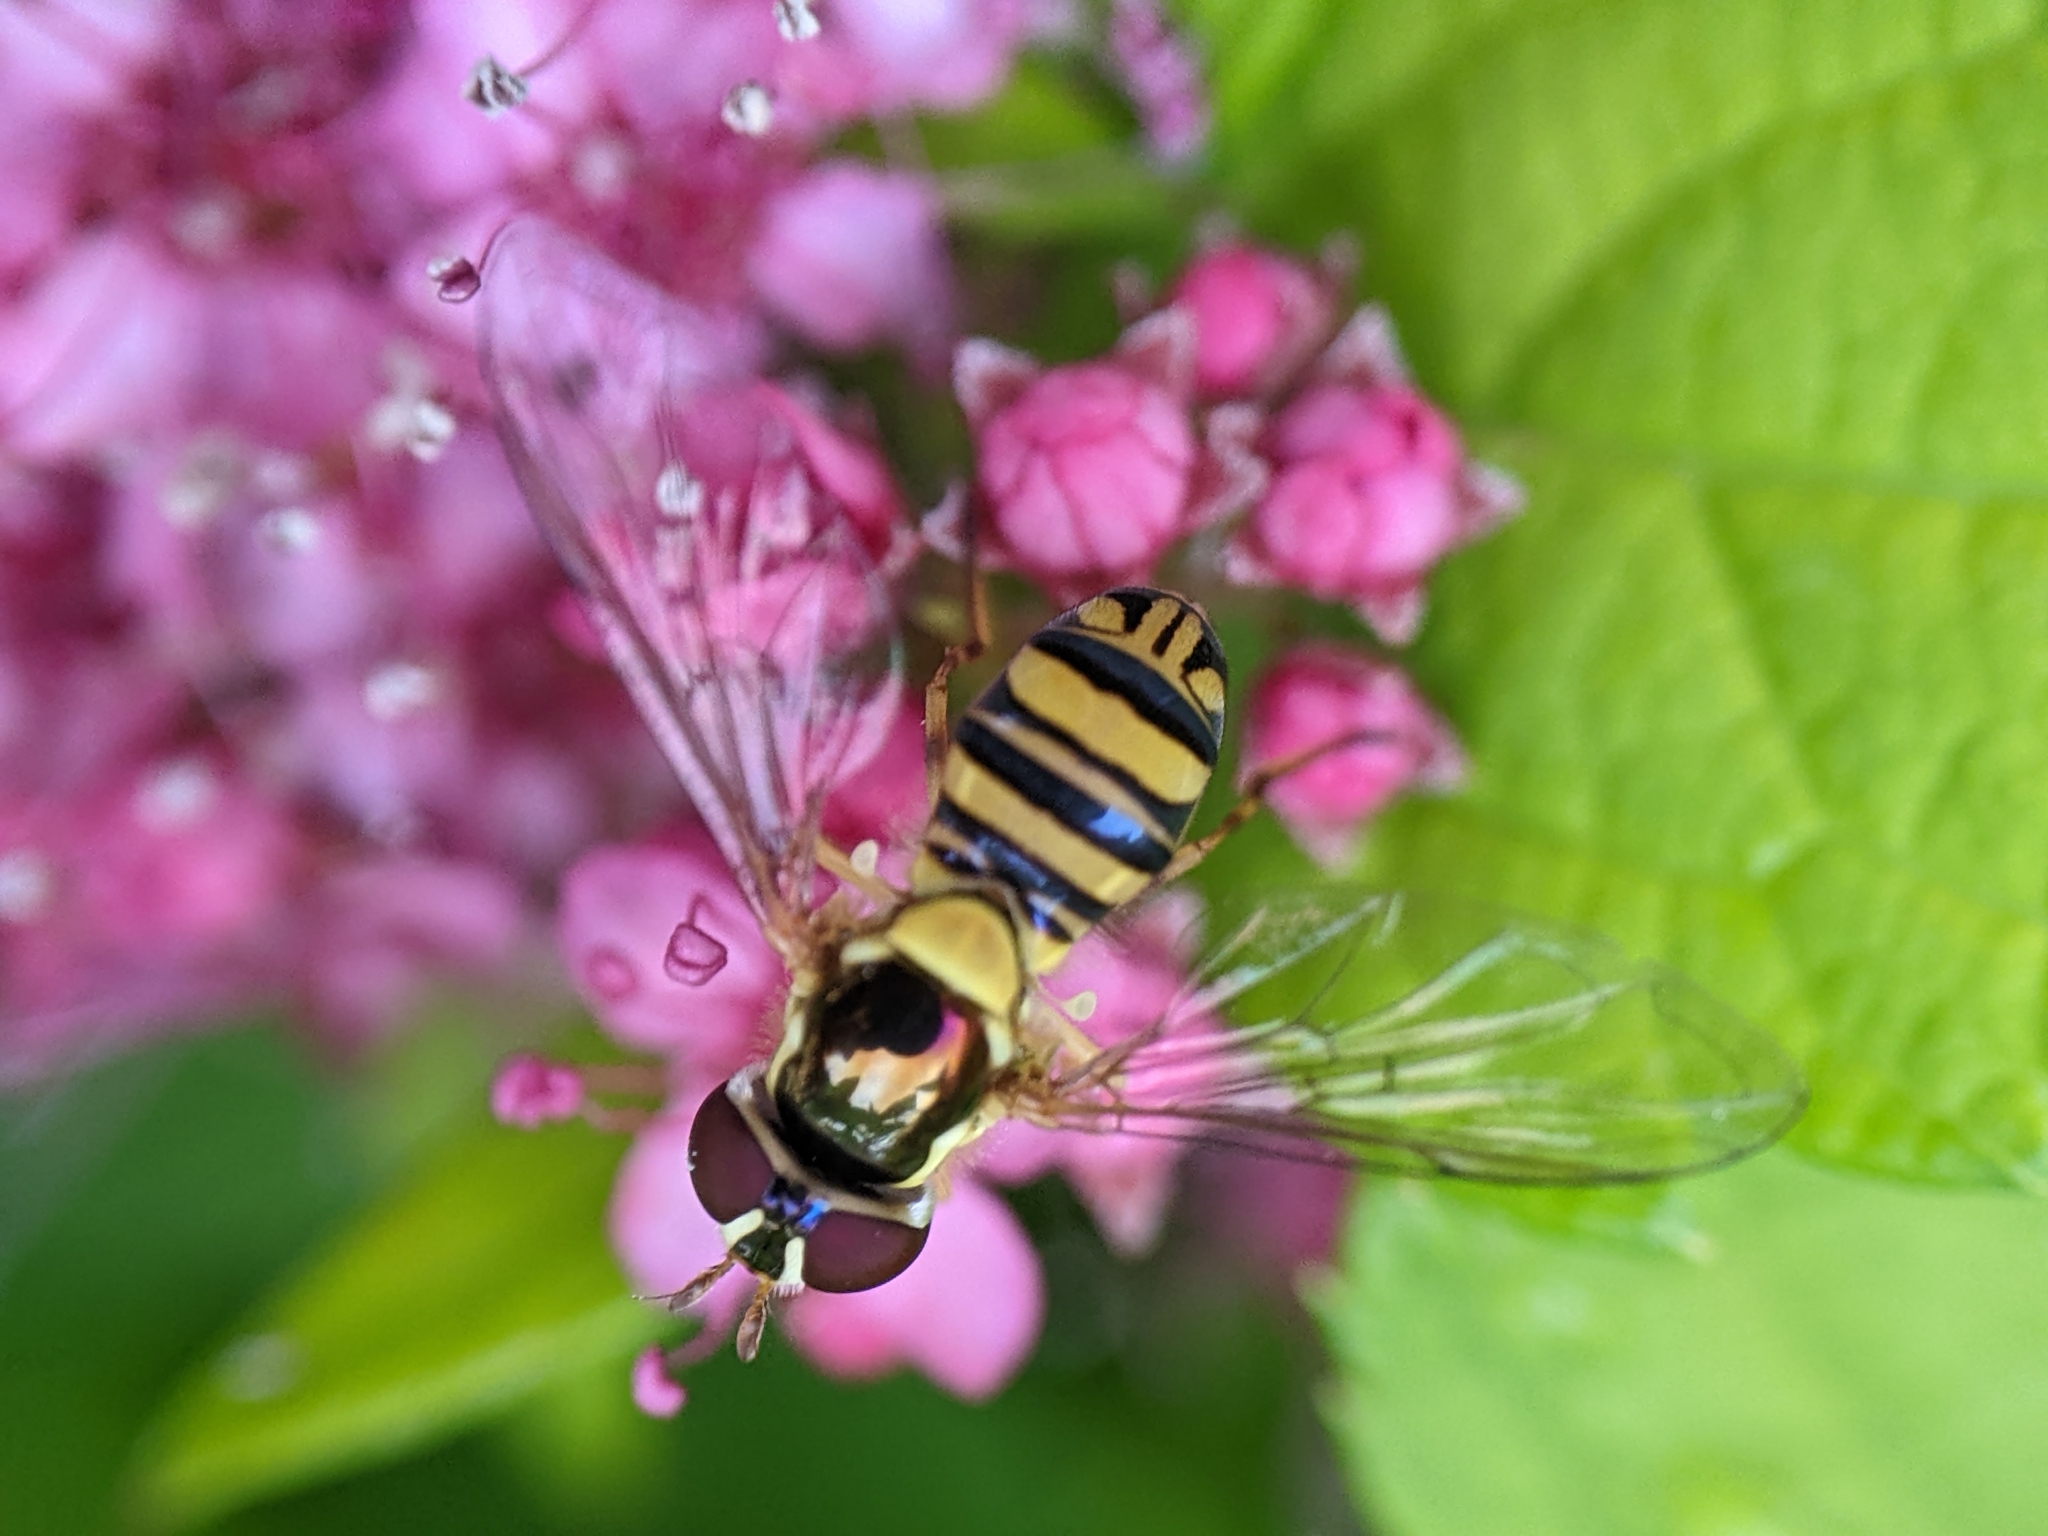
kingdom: Animalia
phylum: Arthropoda
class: Insecta
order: Diptera
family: Syrphidae
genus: Allograpta
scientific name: Allograpta obliqua
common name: Common oblique syrphid
